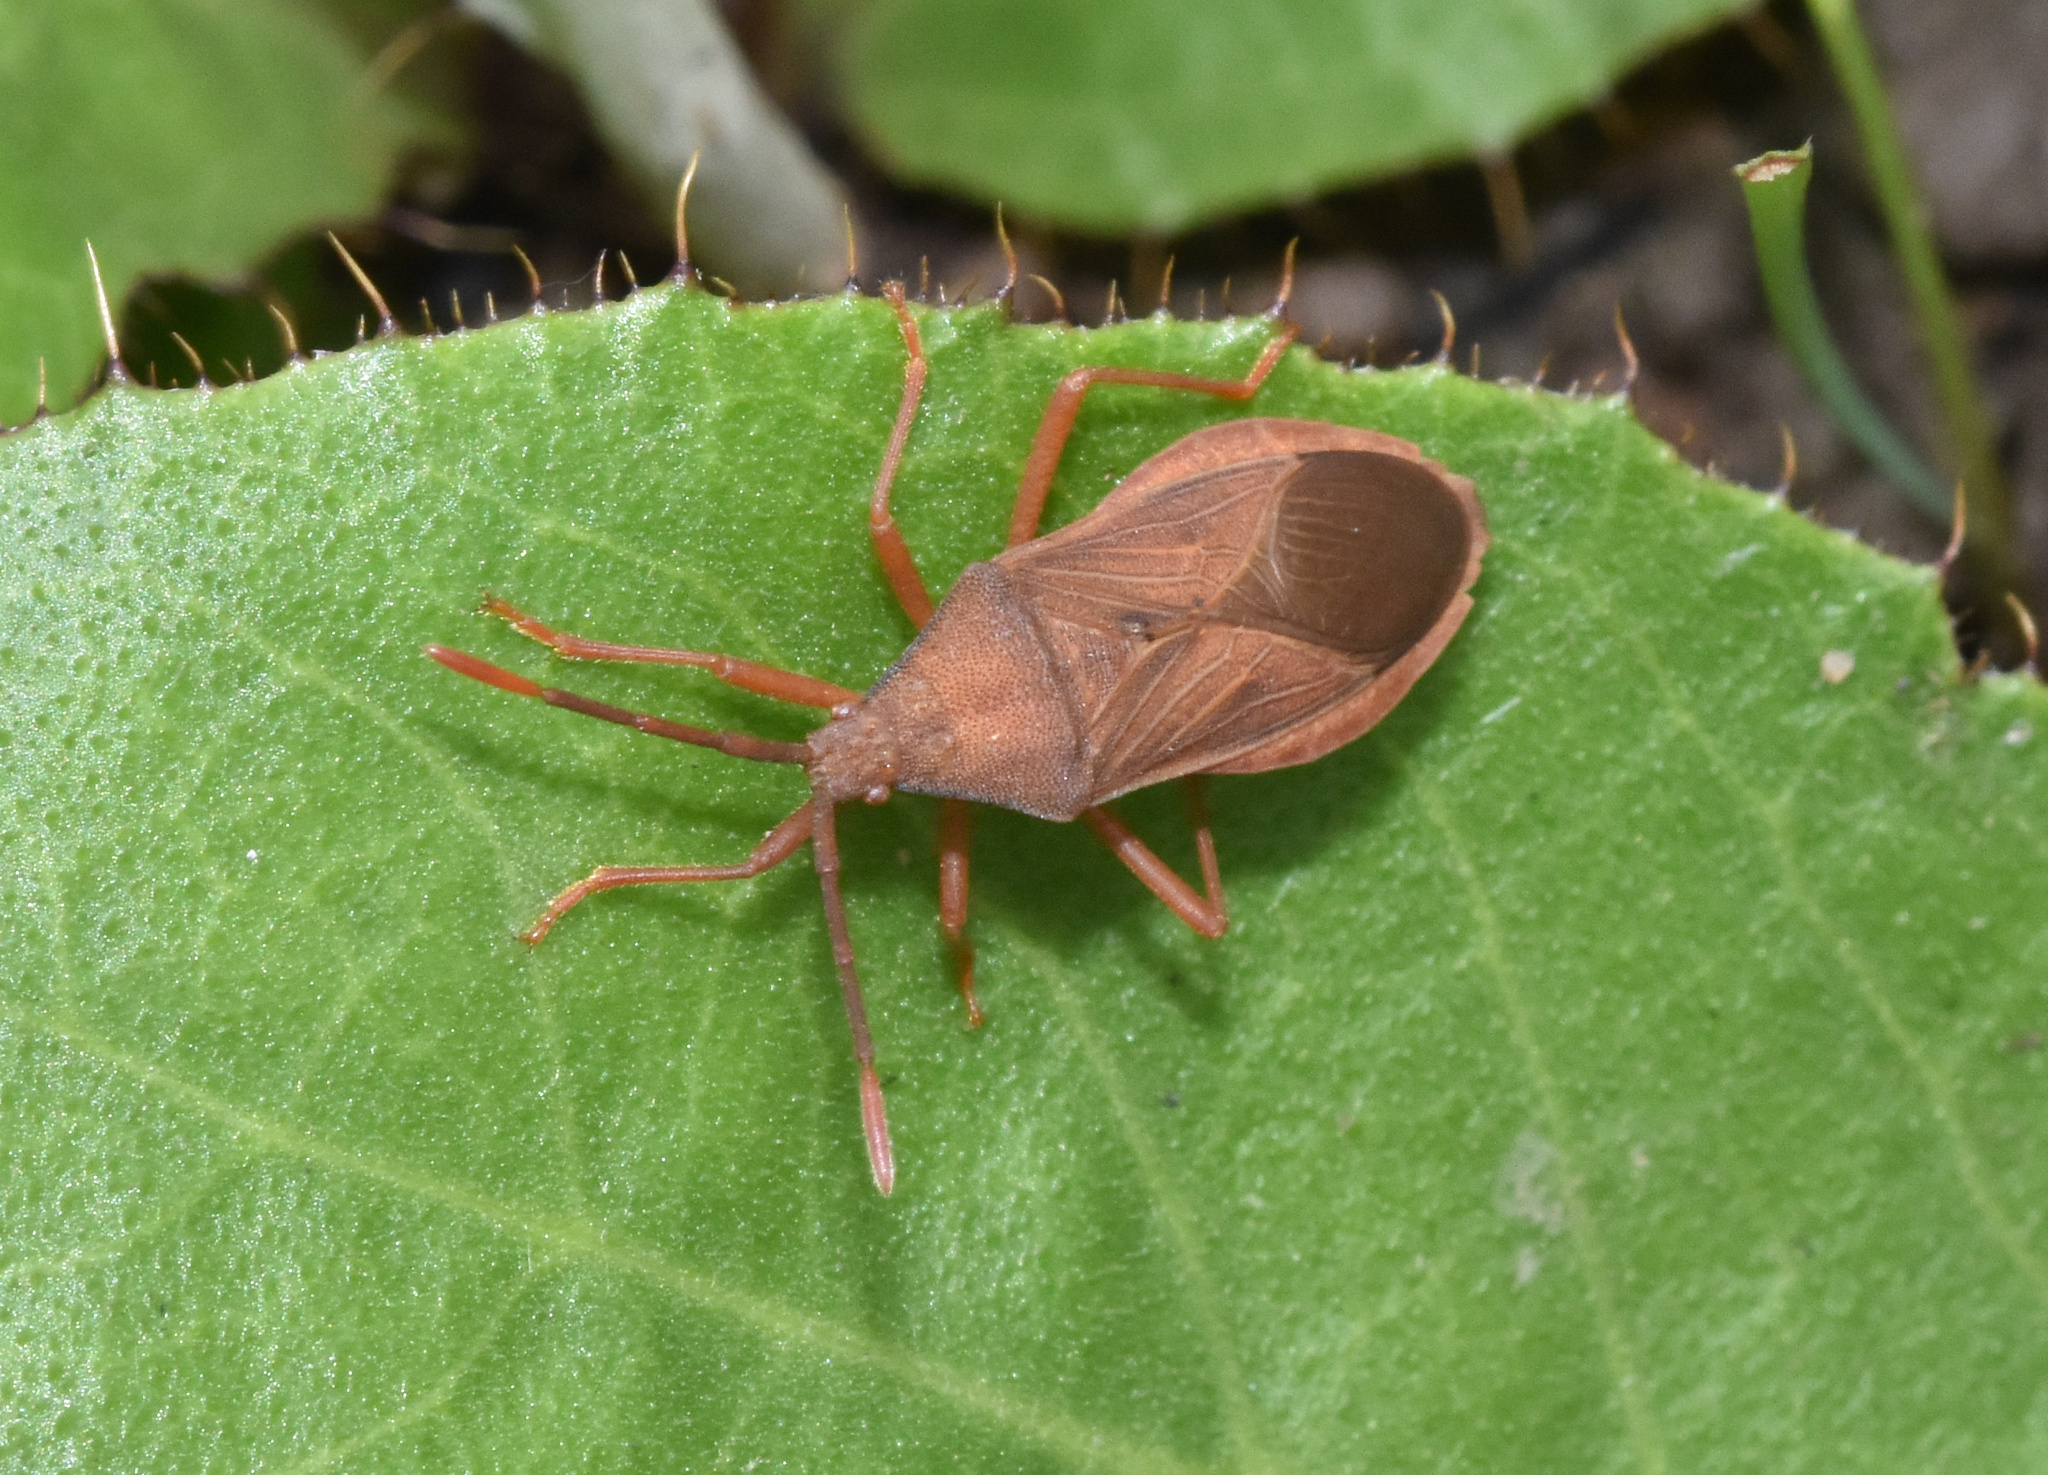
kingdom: Animalia
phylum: Arthropoda
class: Insecta
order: Hemiptera
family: Coreidae
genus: Ptyctus
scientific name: Ptyctus punctatus
